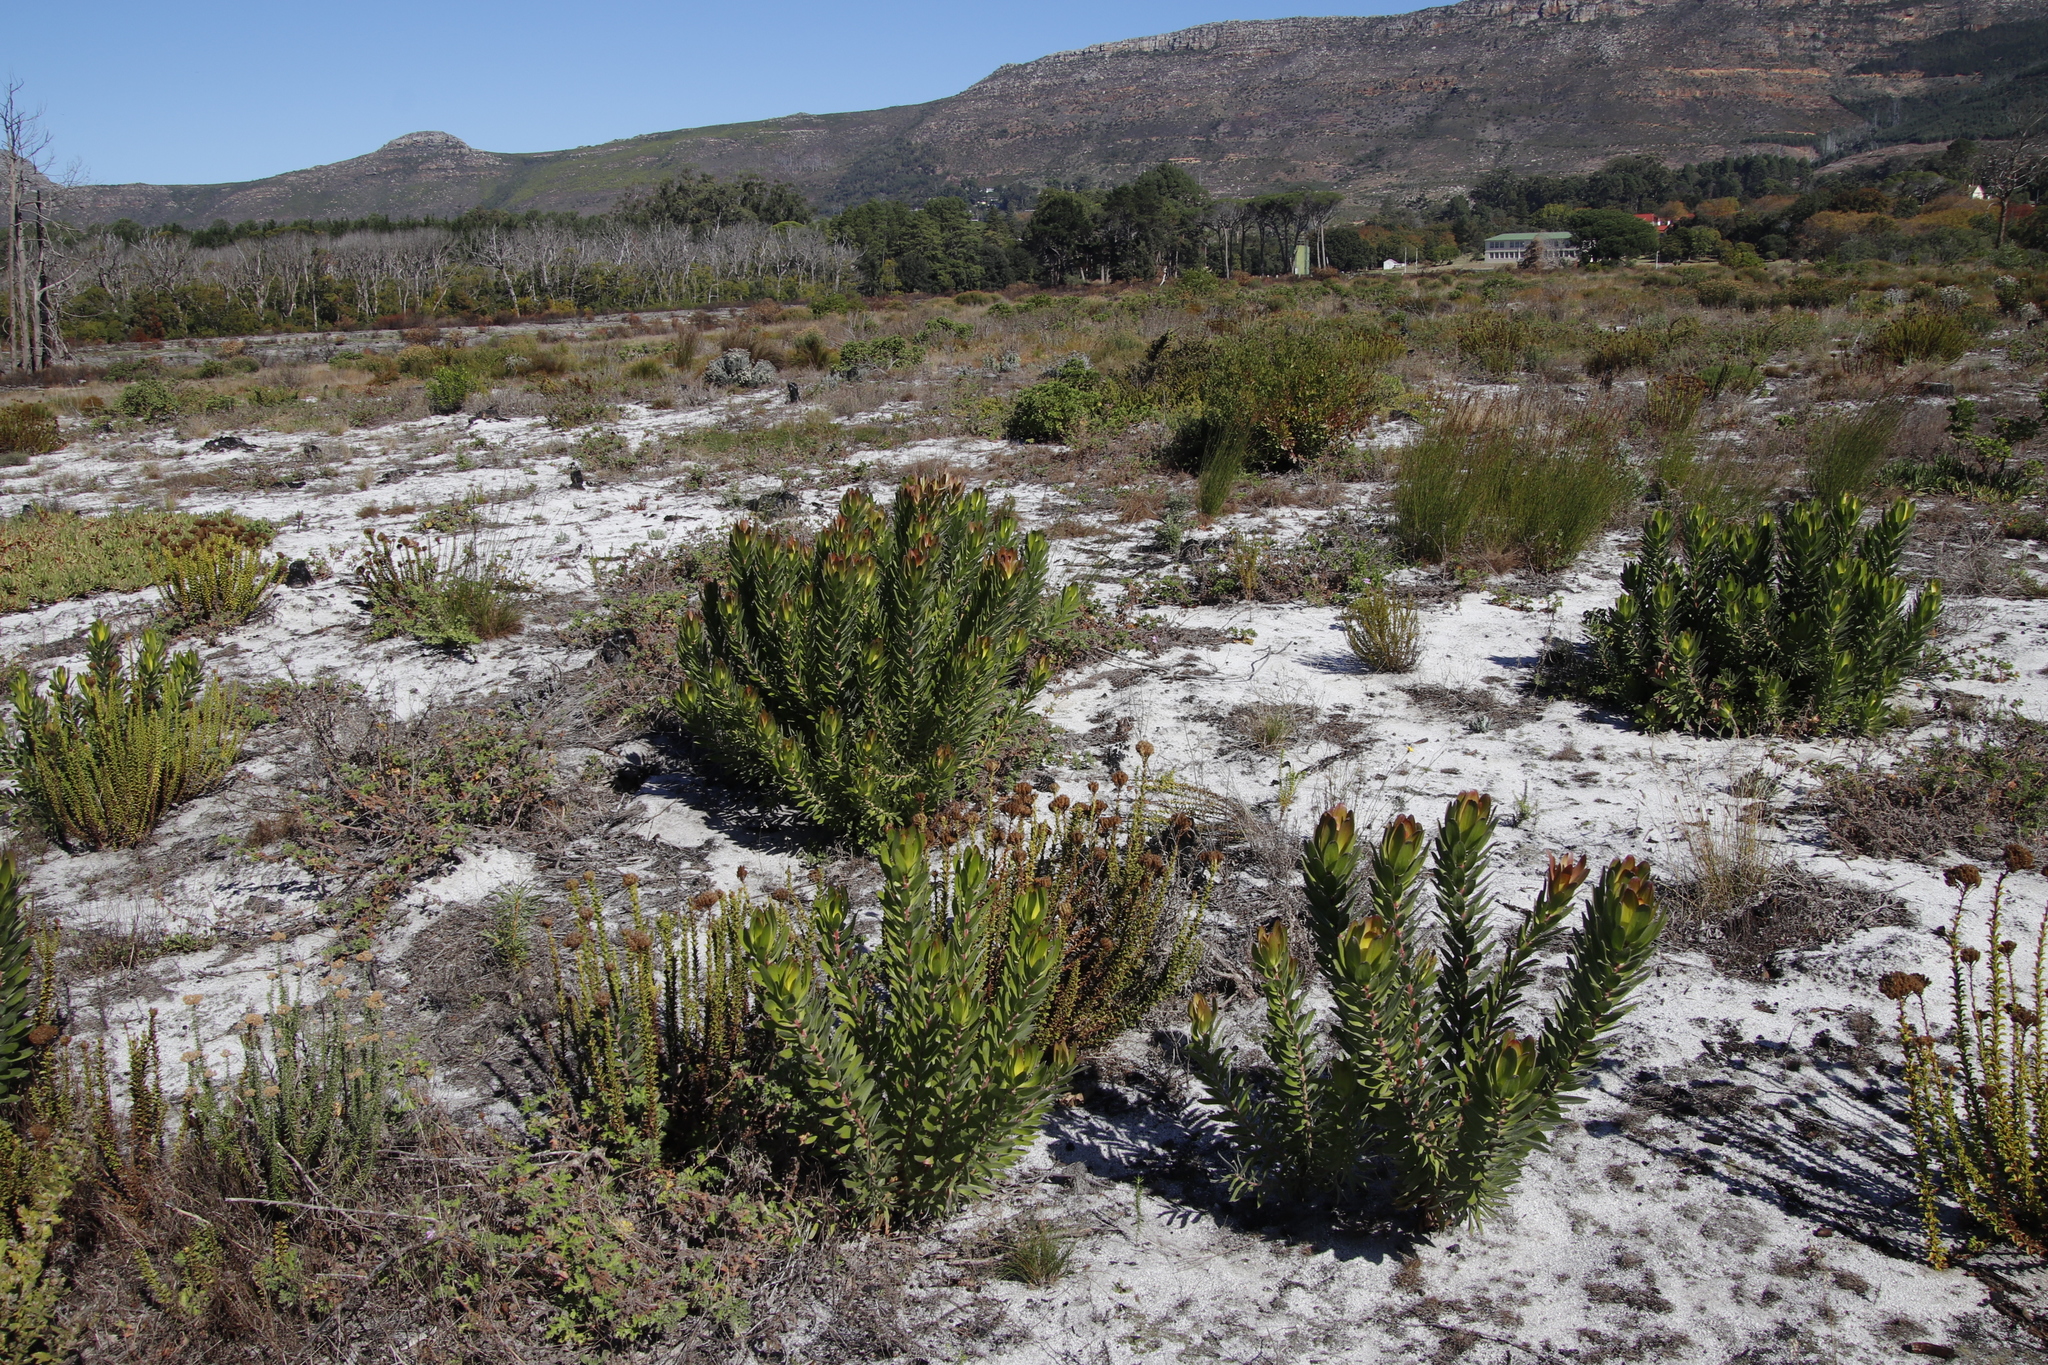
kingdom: Plantae
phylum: Tracheophyta
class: Magnoliopsida
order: Proteales
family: Proteaceae
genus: Leucadendron
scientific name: Leucadendron laureolum
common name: Golden sunshinebush
